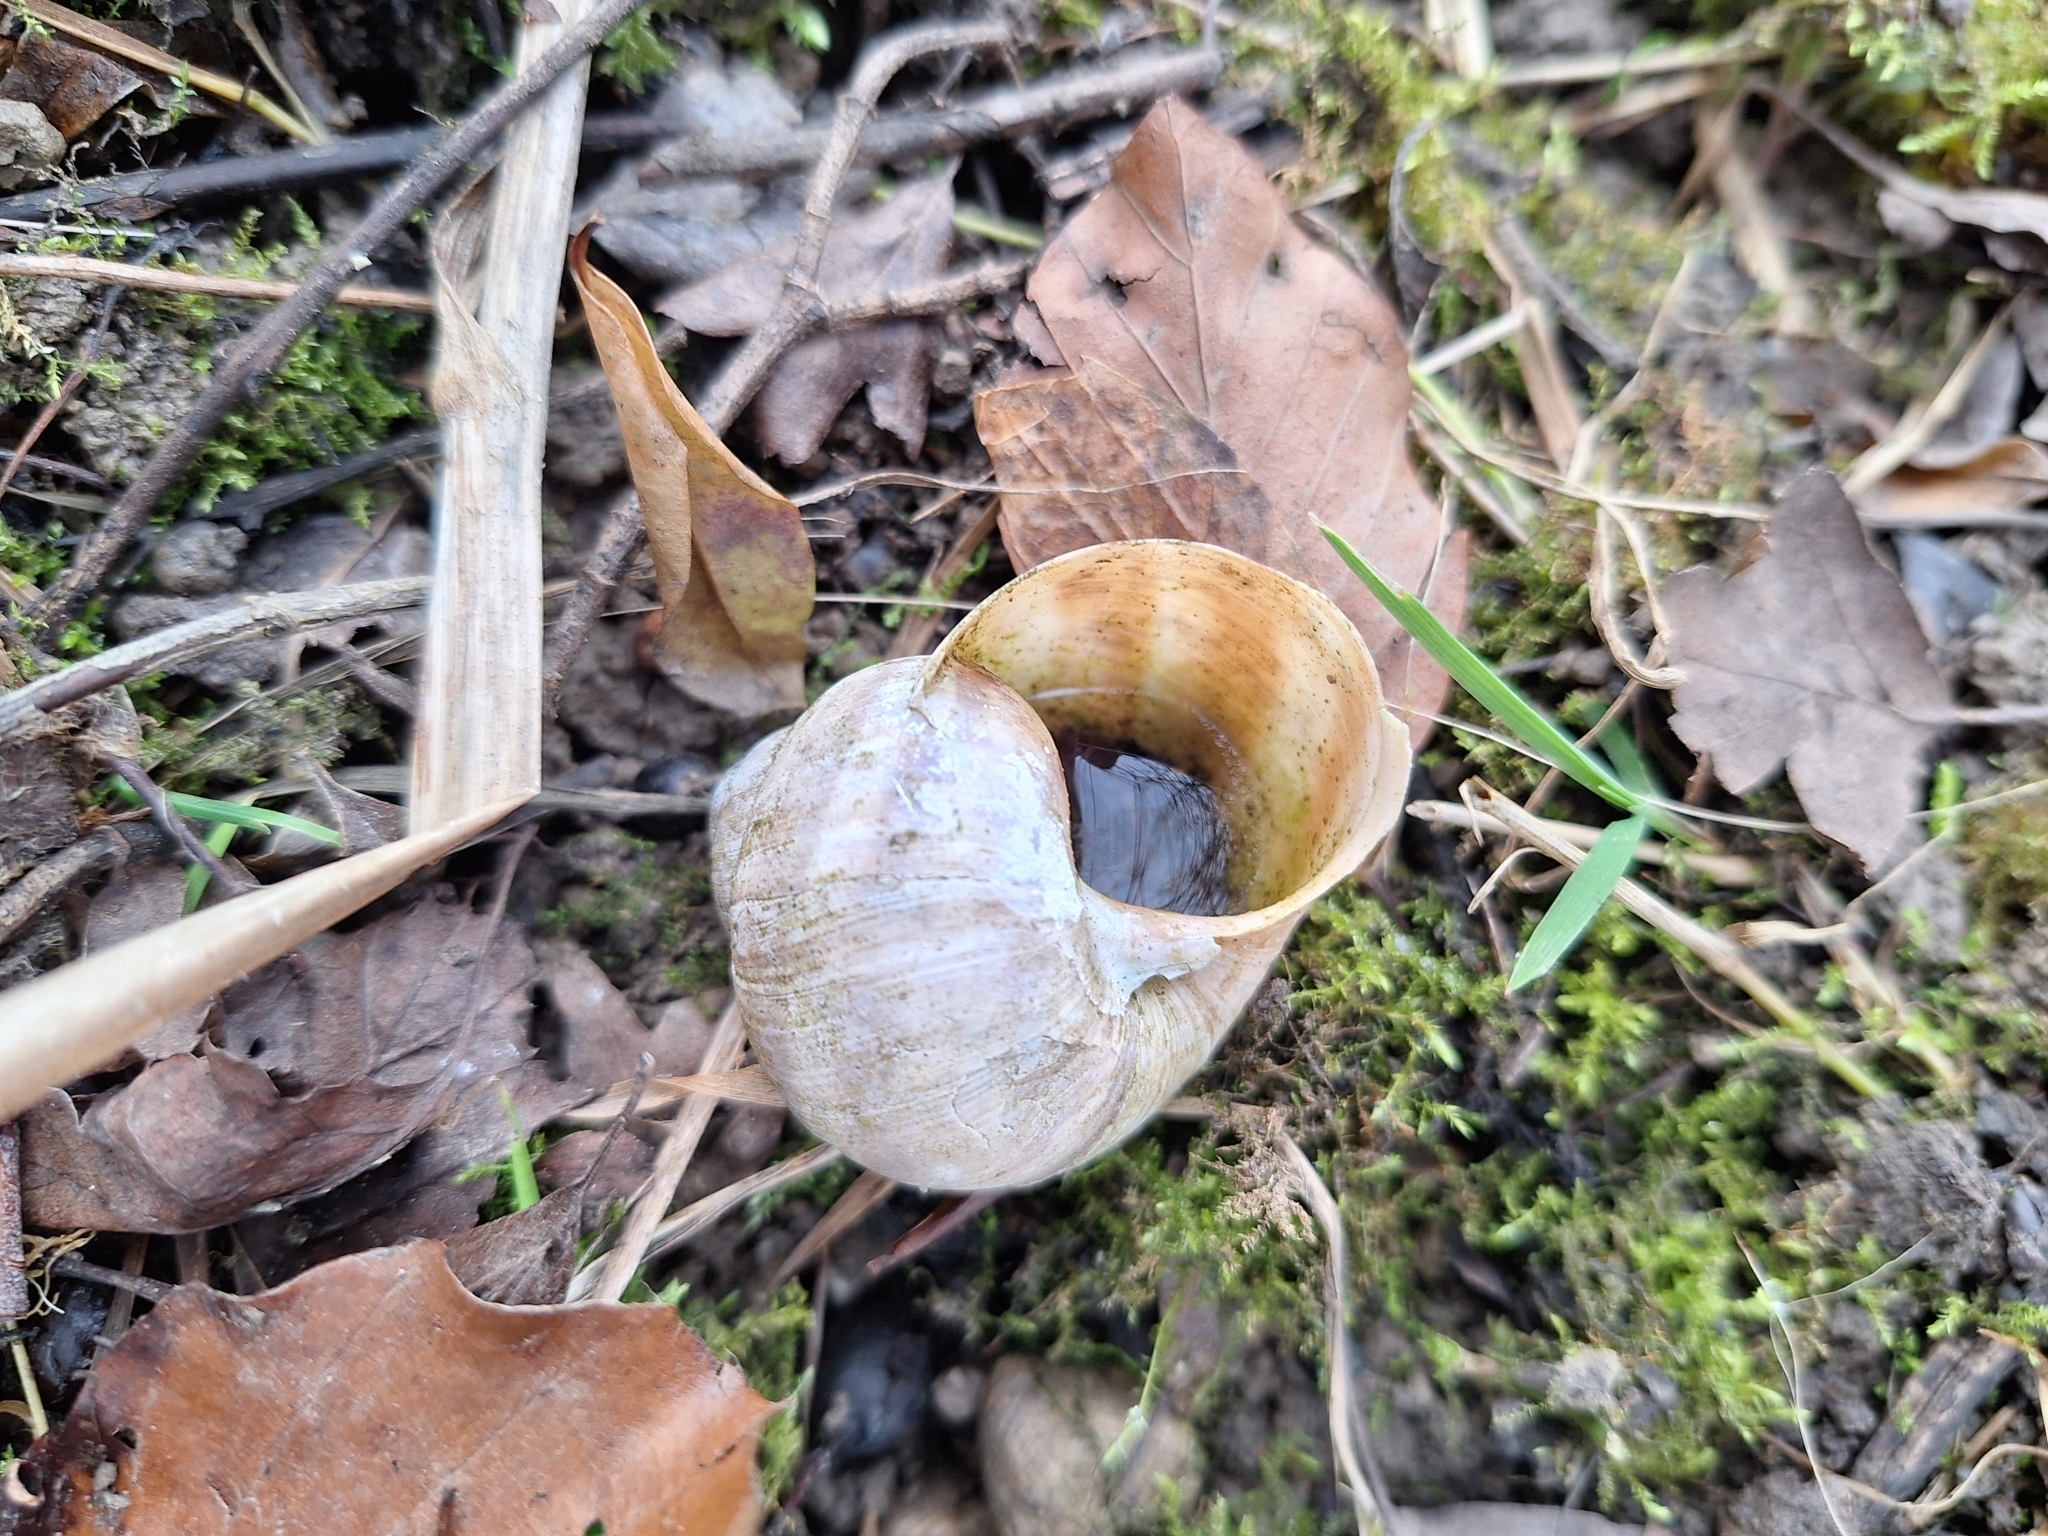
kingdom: Animalia
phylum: Mollusca
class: Gastropoda
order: Stylommatophora
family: Helicidae
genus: Helix
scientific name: Helix pomatia
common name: Roman snail
